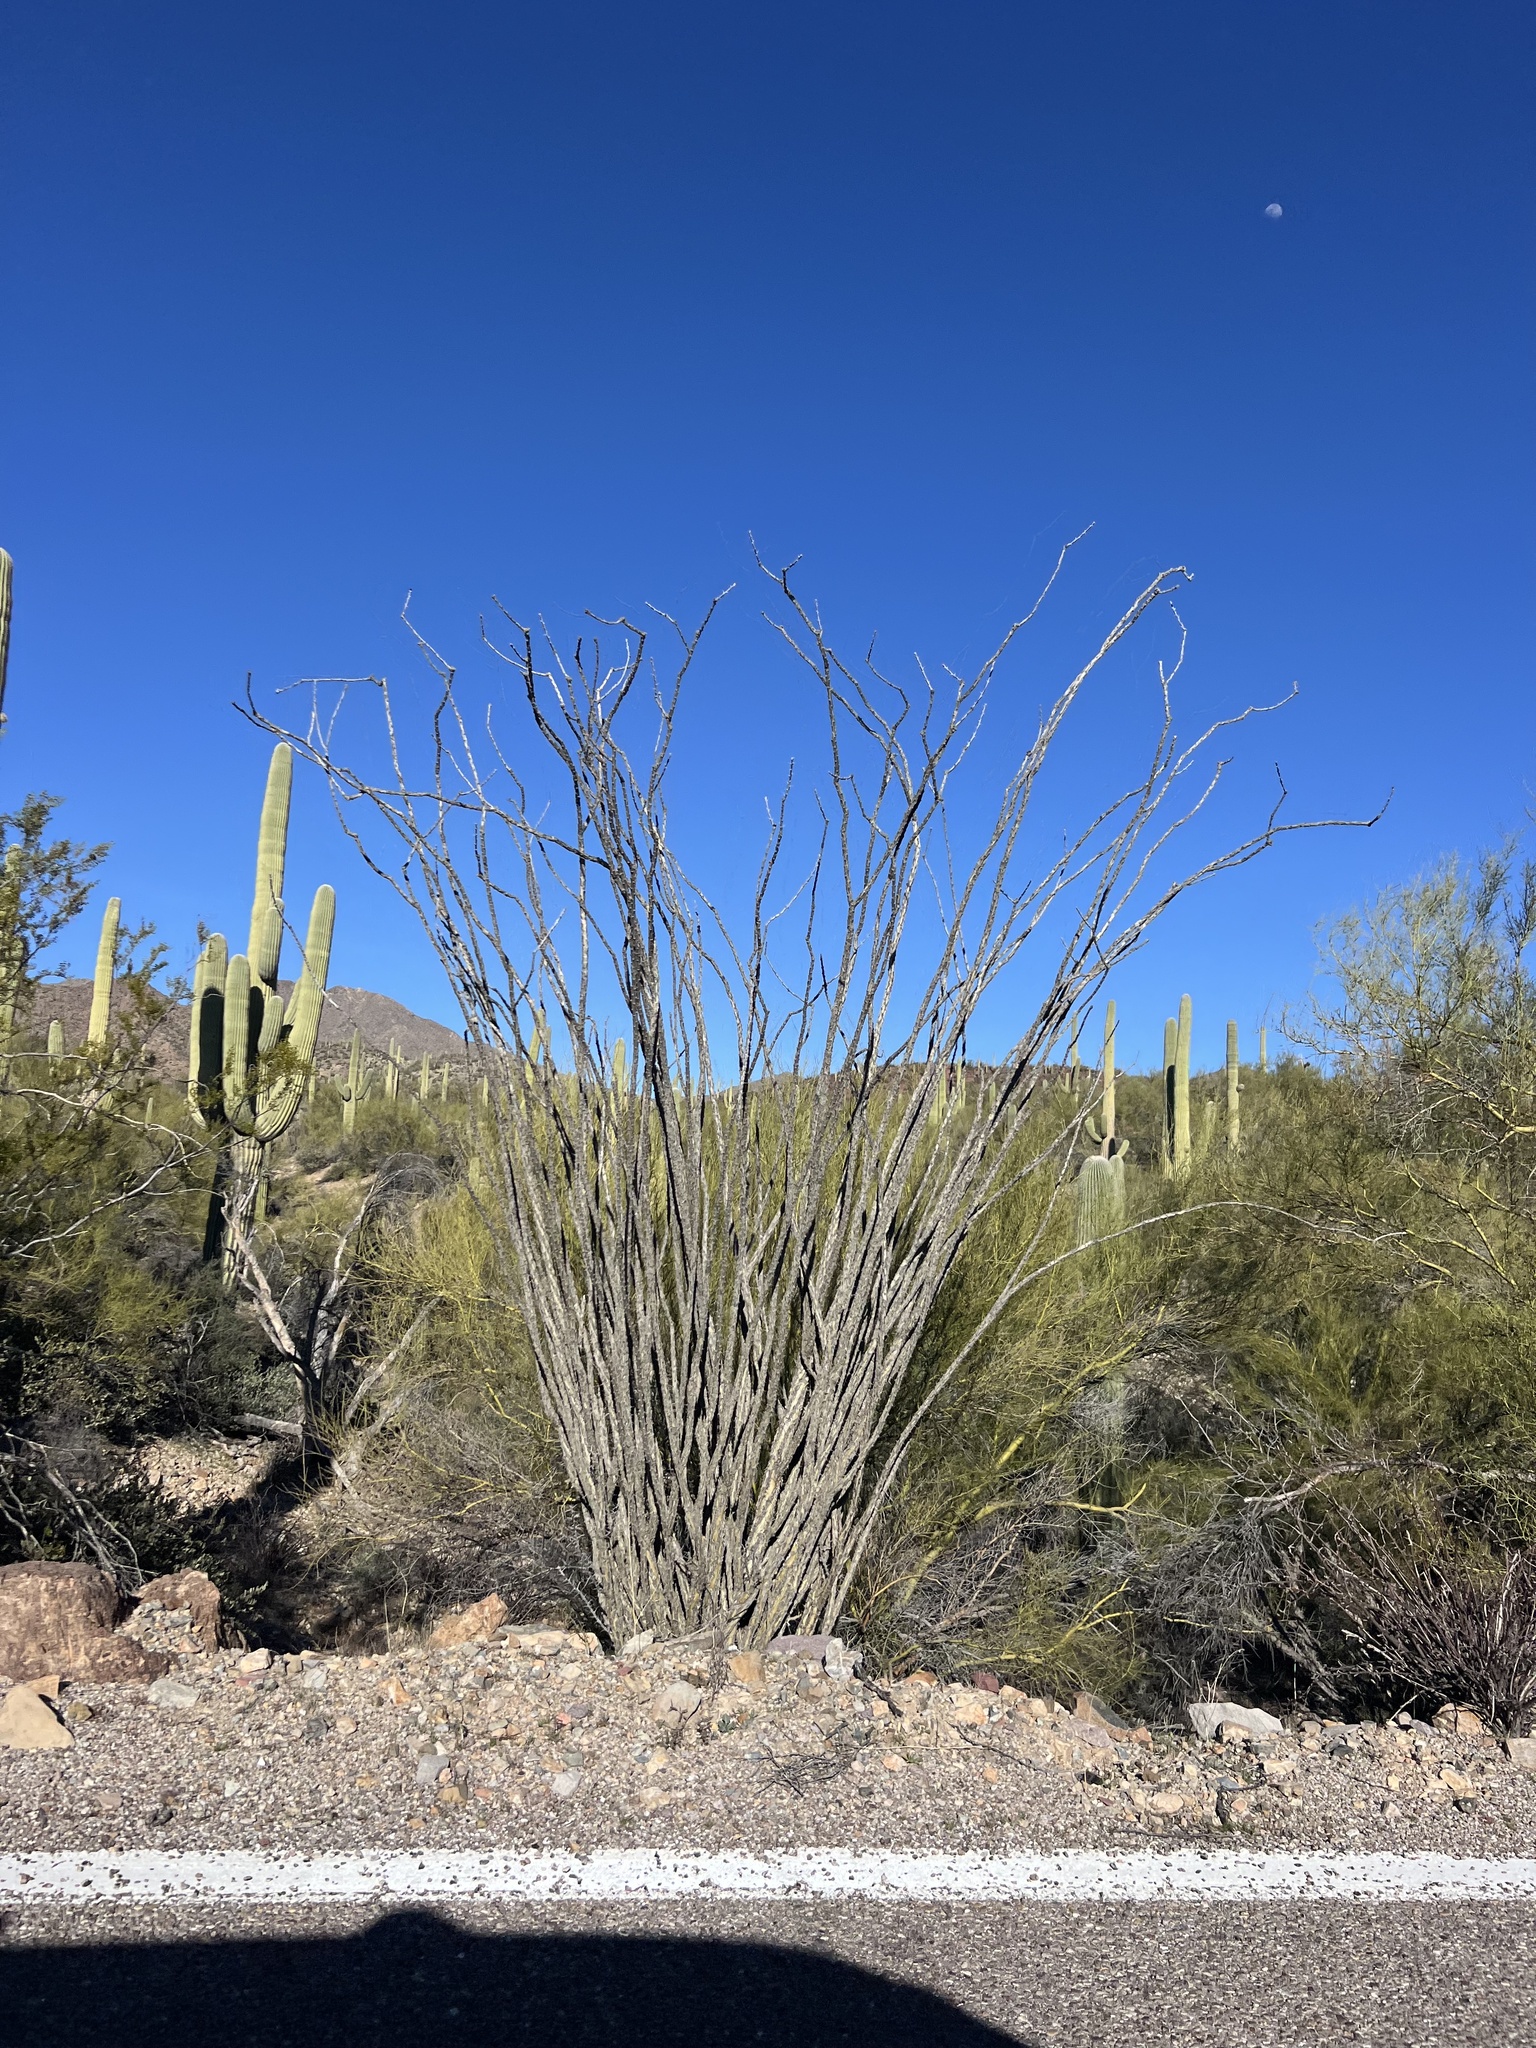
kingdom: Plantae
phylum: Tracheophyta
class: Magnoliopsida
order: Ericales
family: Fouquieriaceae
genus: Fouquieria
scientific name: Fouquieria splendens
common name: Vine-cactus
